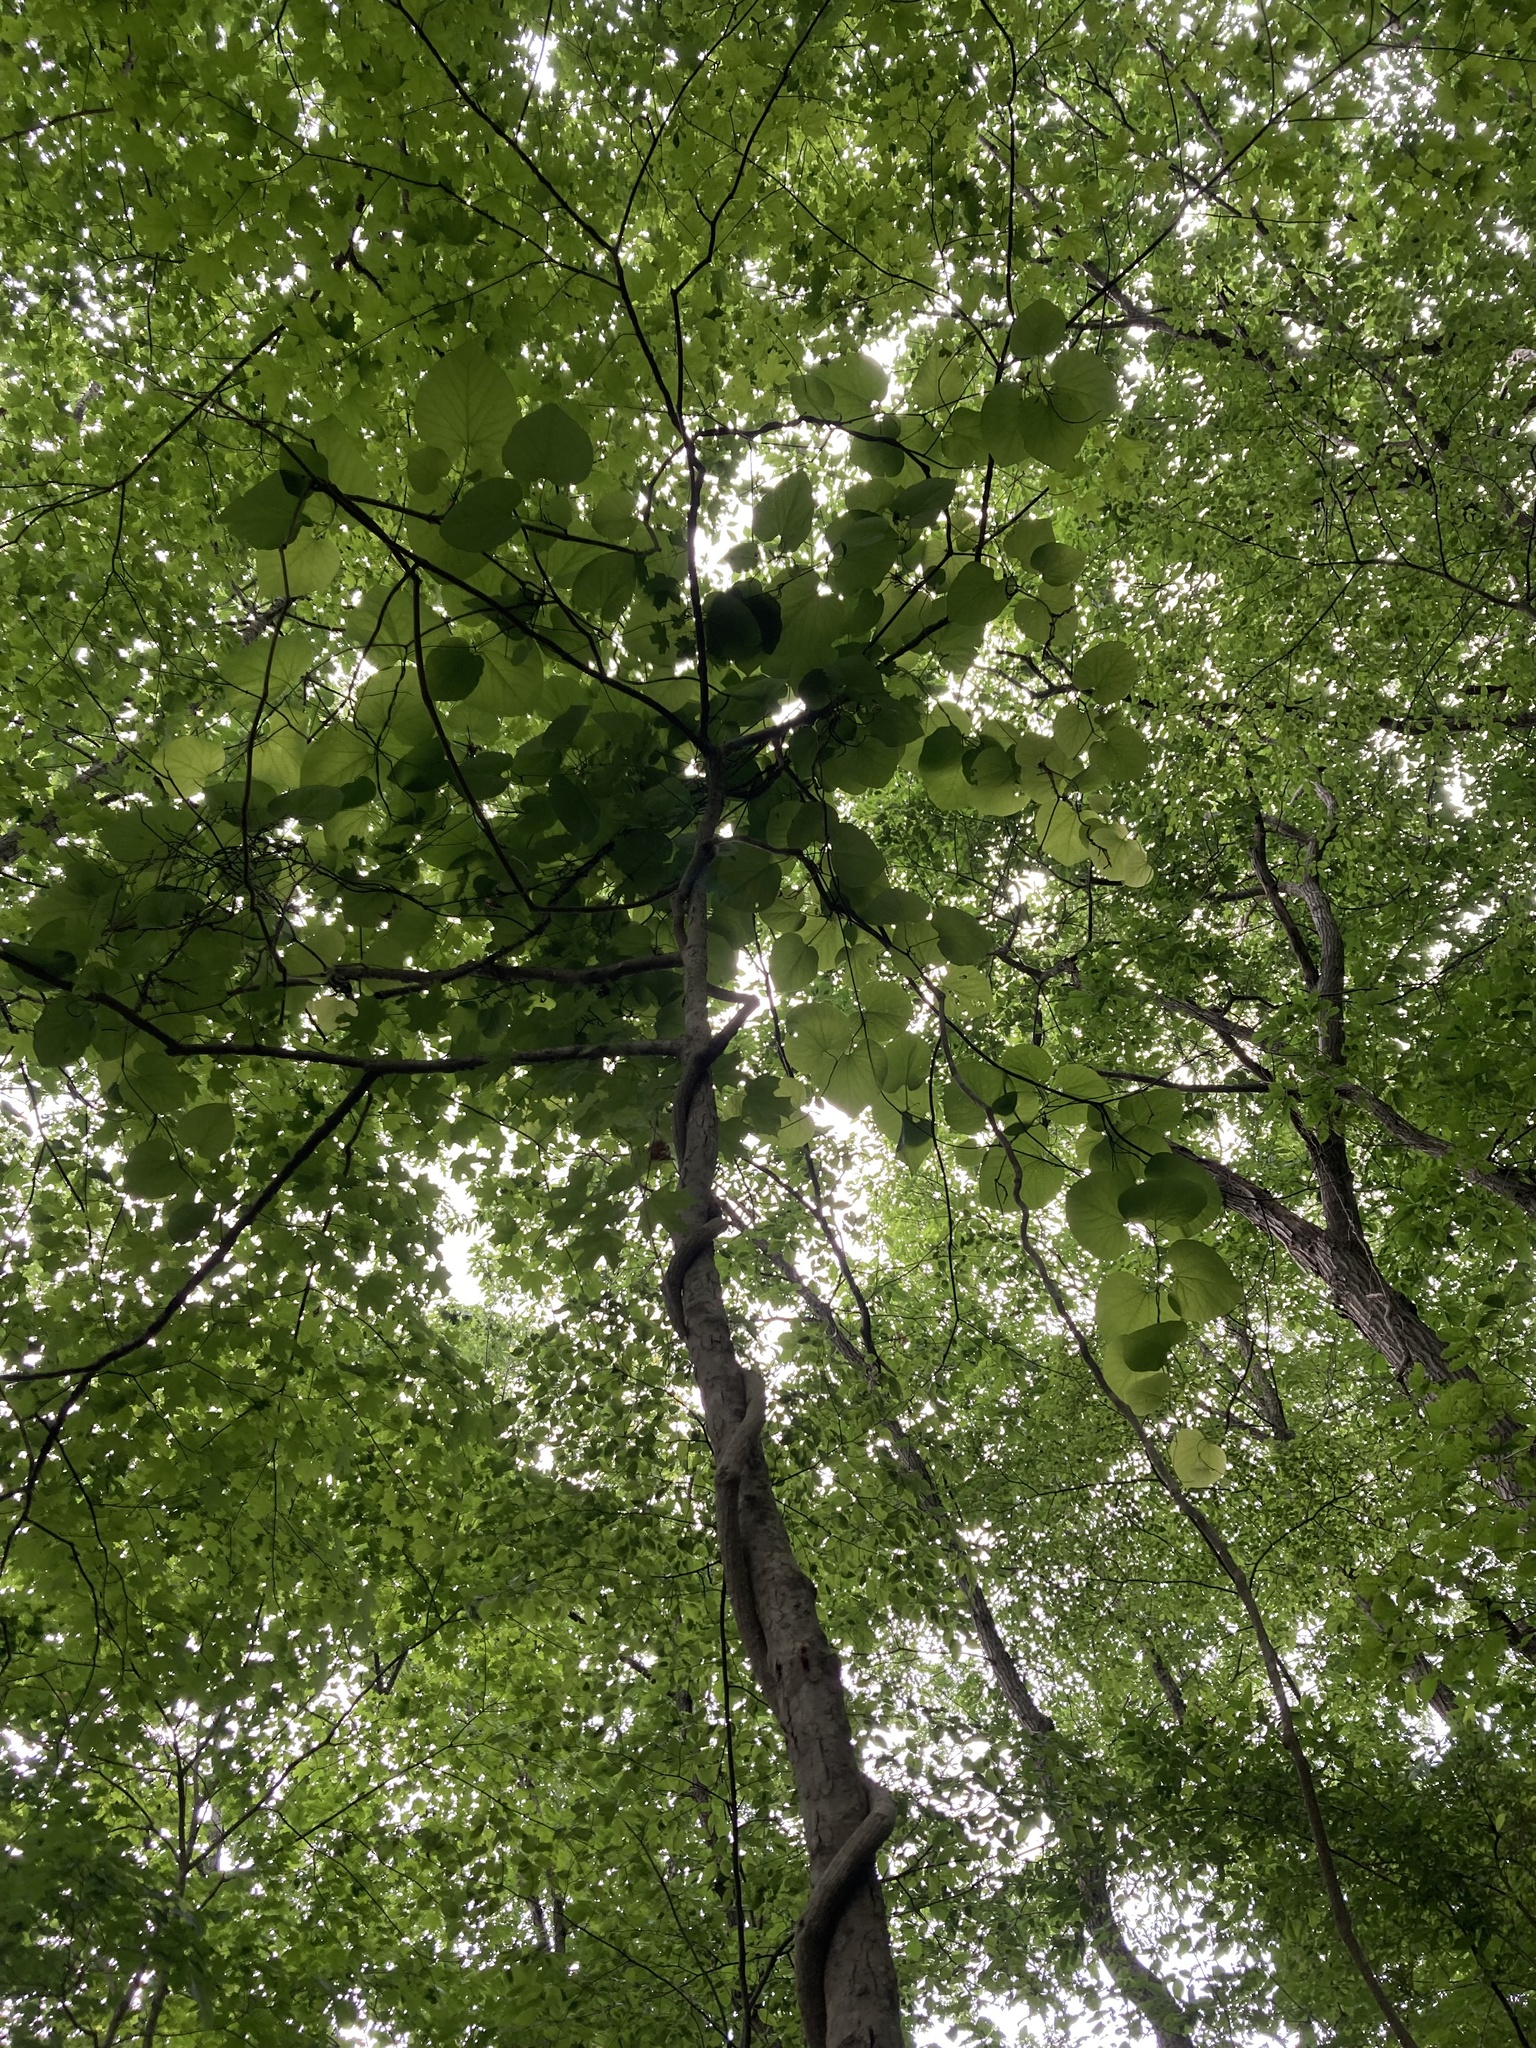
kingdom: Plantae
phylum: Tracheophyta
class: Magnoliopsida
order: Piperales
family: Aristolochiaceae
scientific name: Aristolochiaceae
